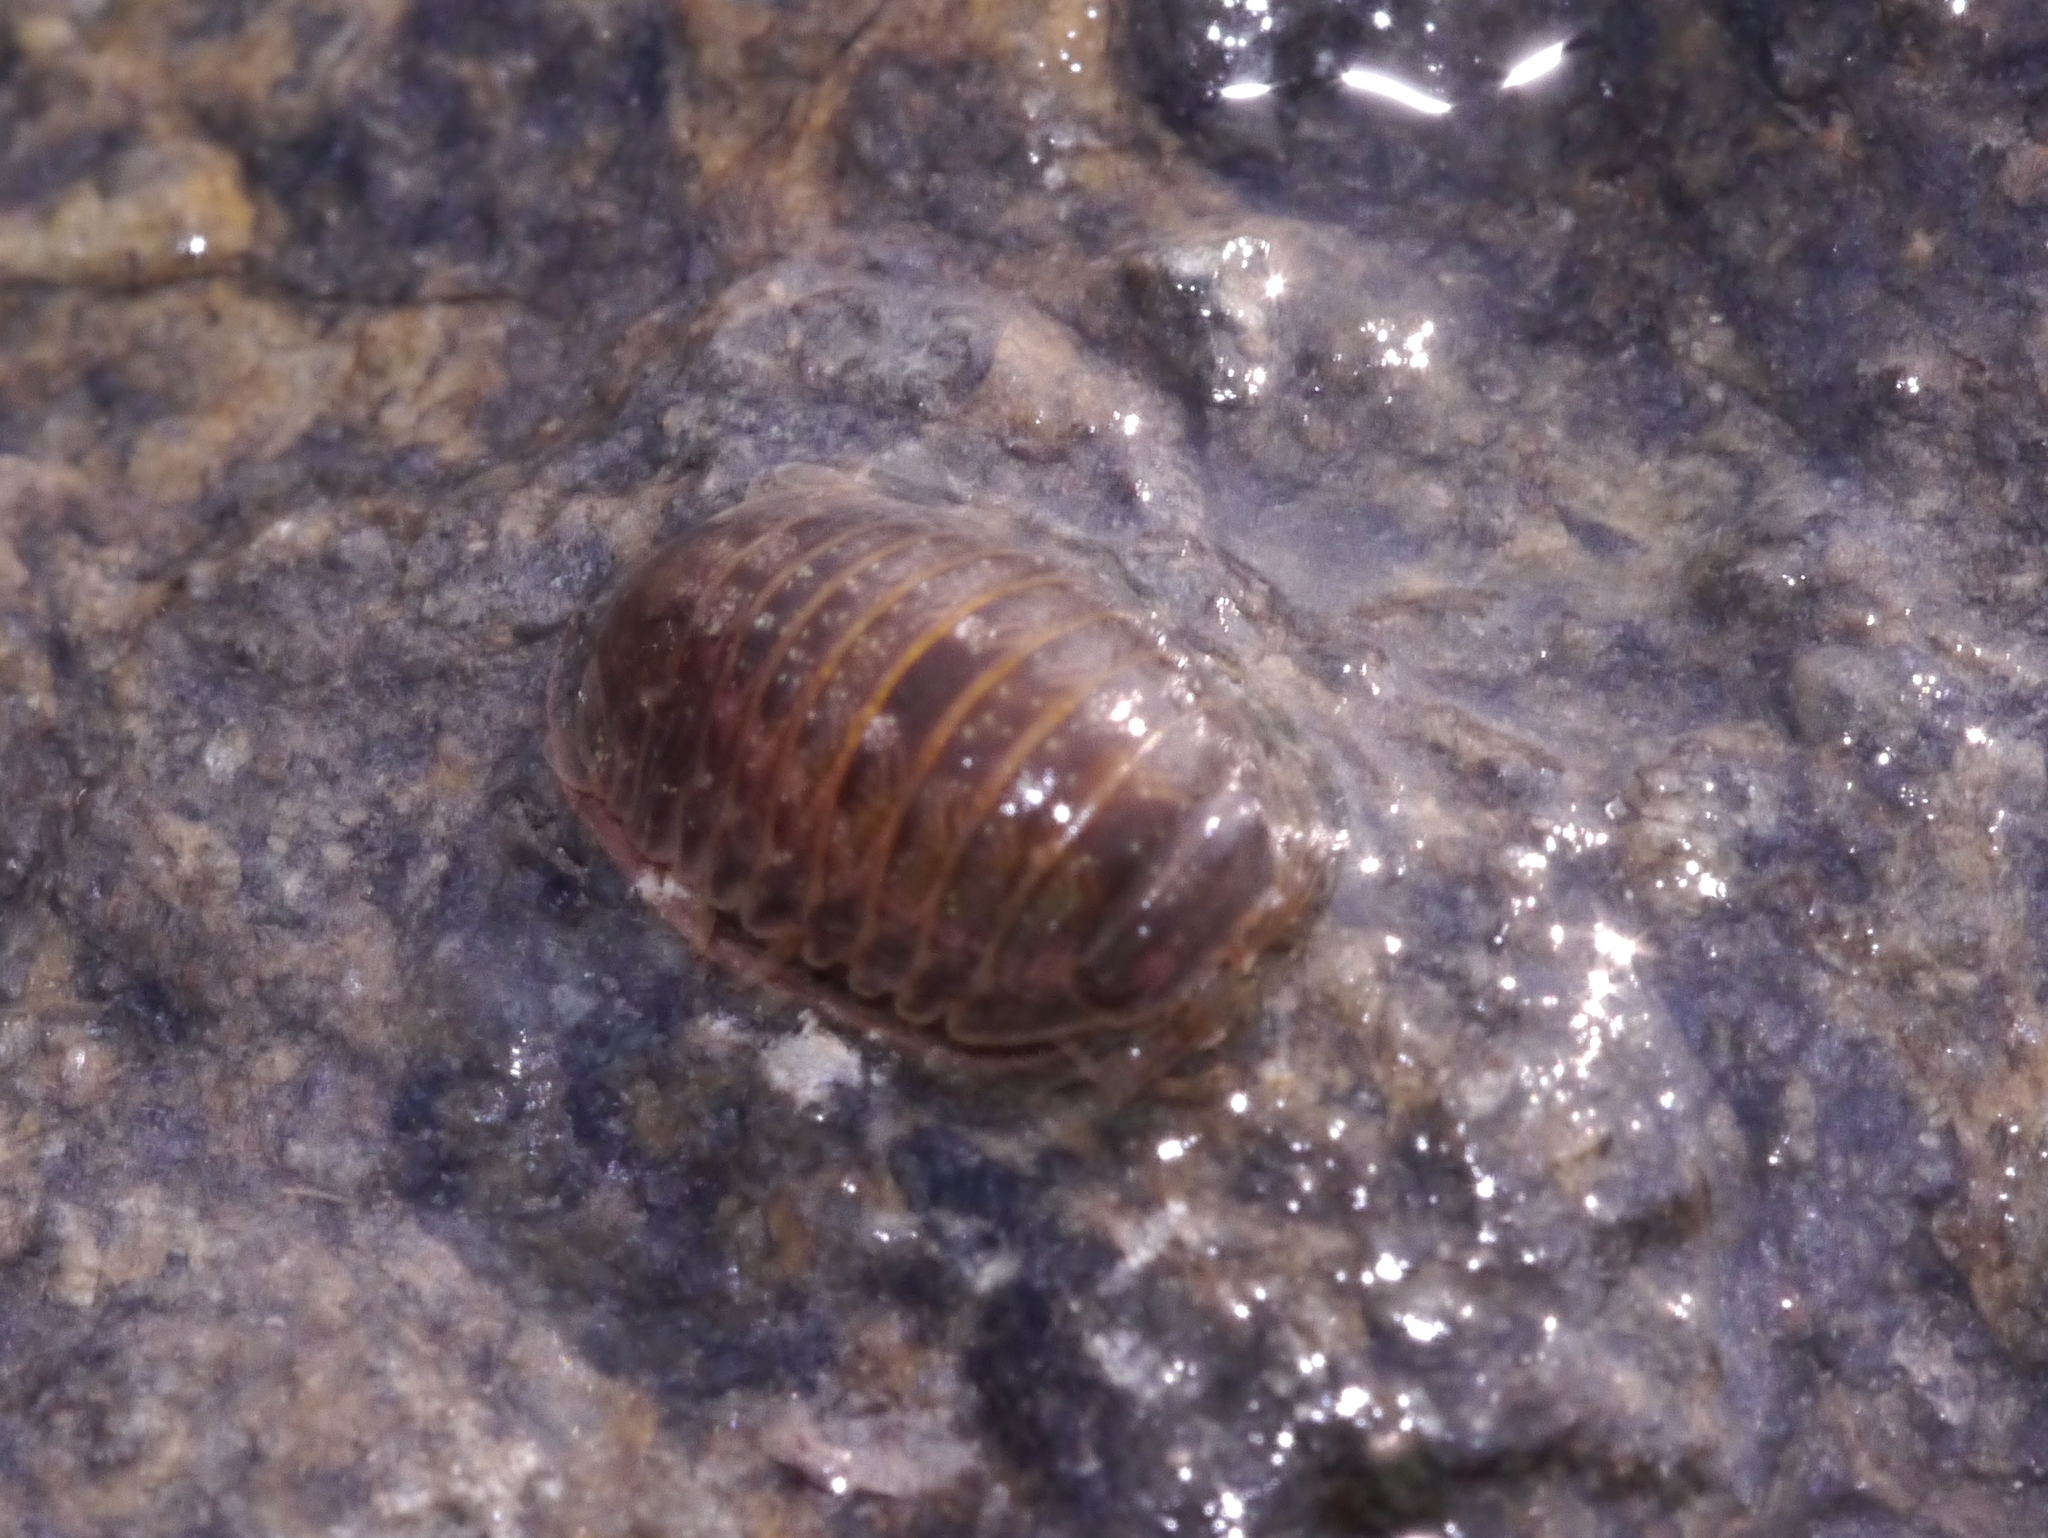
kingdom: Animalia
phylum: Arthropoda
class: Malacostraca
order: Isopoda
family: Sphaeromatidae
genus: Gnorimosphaeroma
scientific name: Gnorimosphaeroma oregonense
